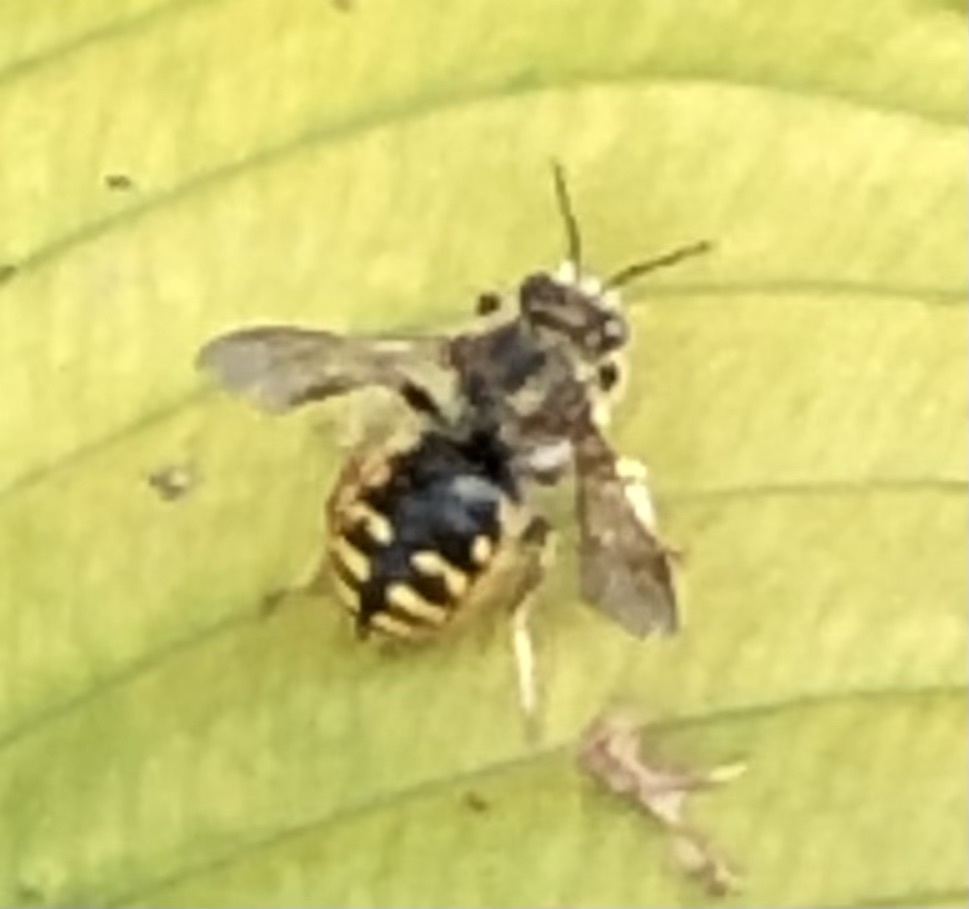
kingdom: Animalia
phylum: Arthropoda
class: Insecta
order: Hymenoptera
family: Megachilidae
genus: Anthidium
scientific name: Anthidium manicatum
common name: Wool carder bee
